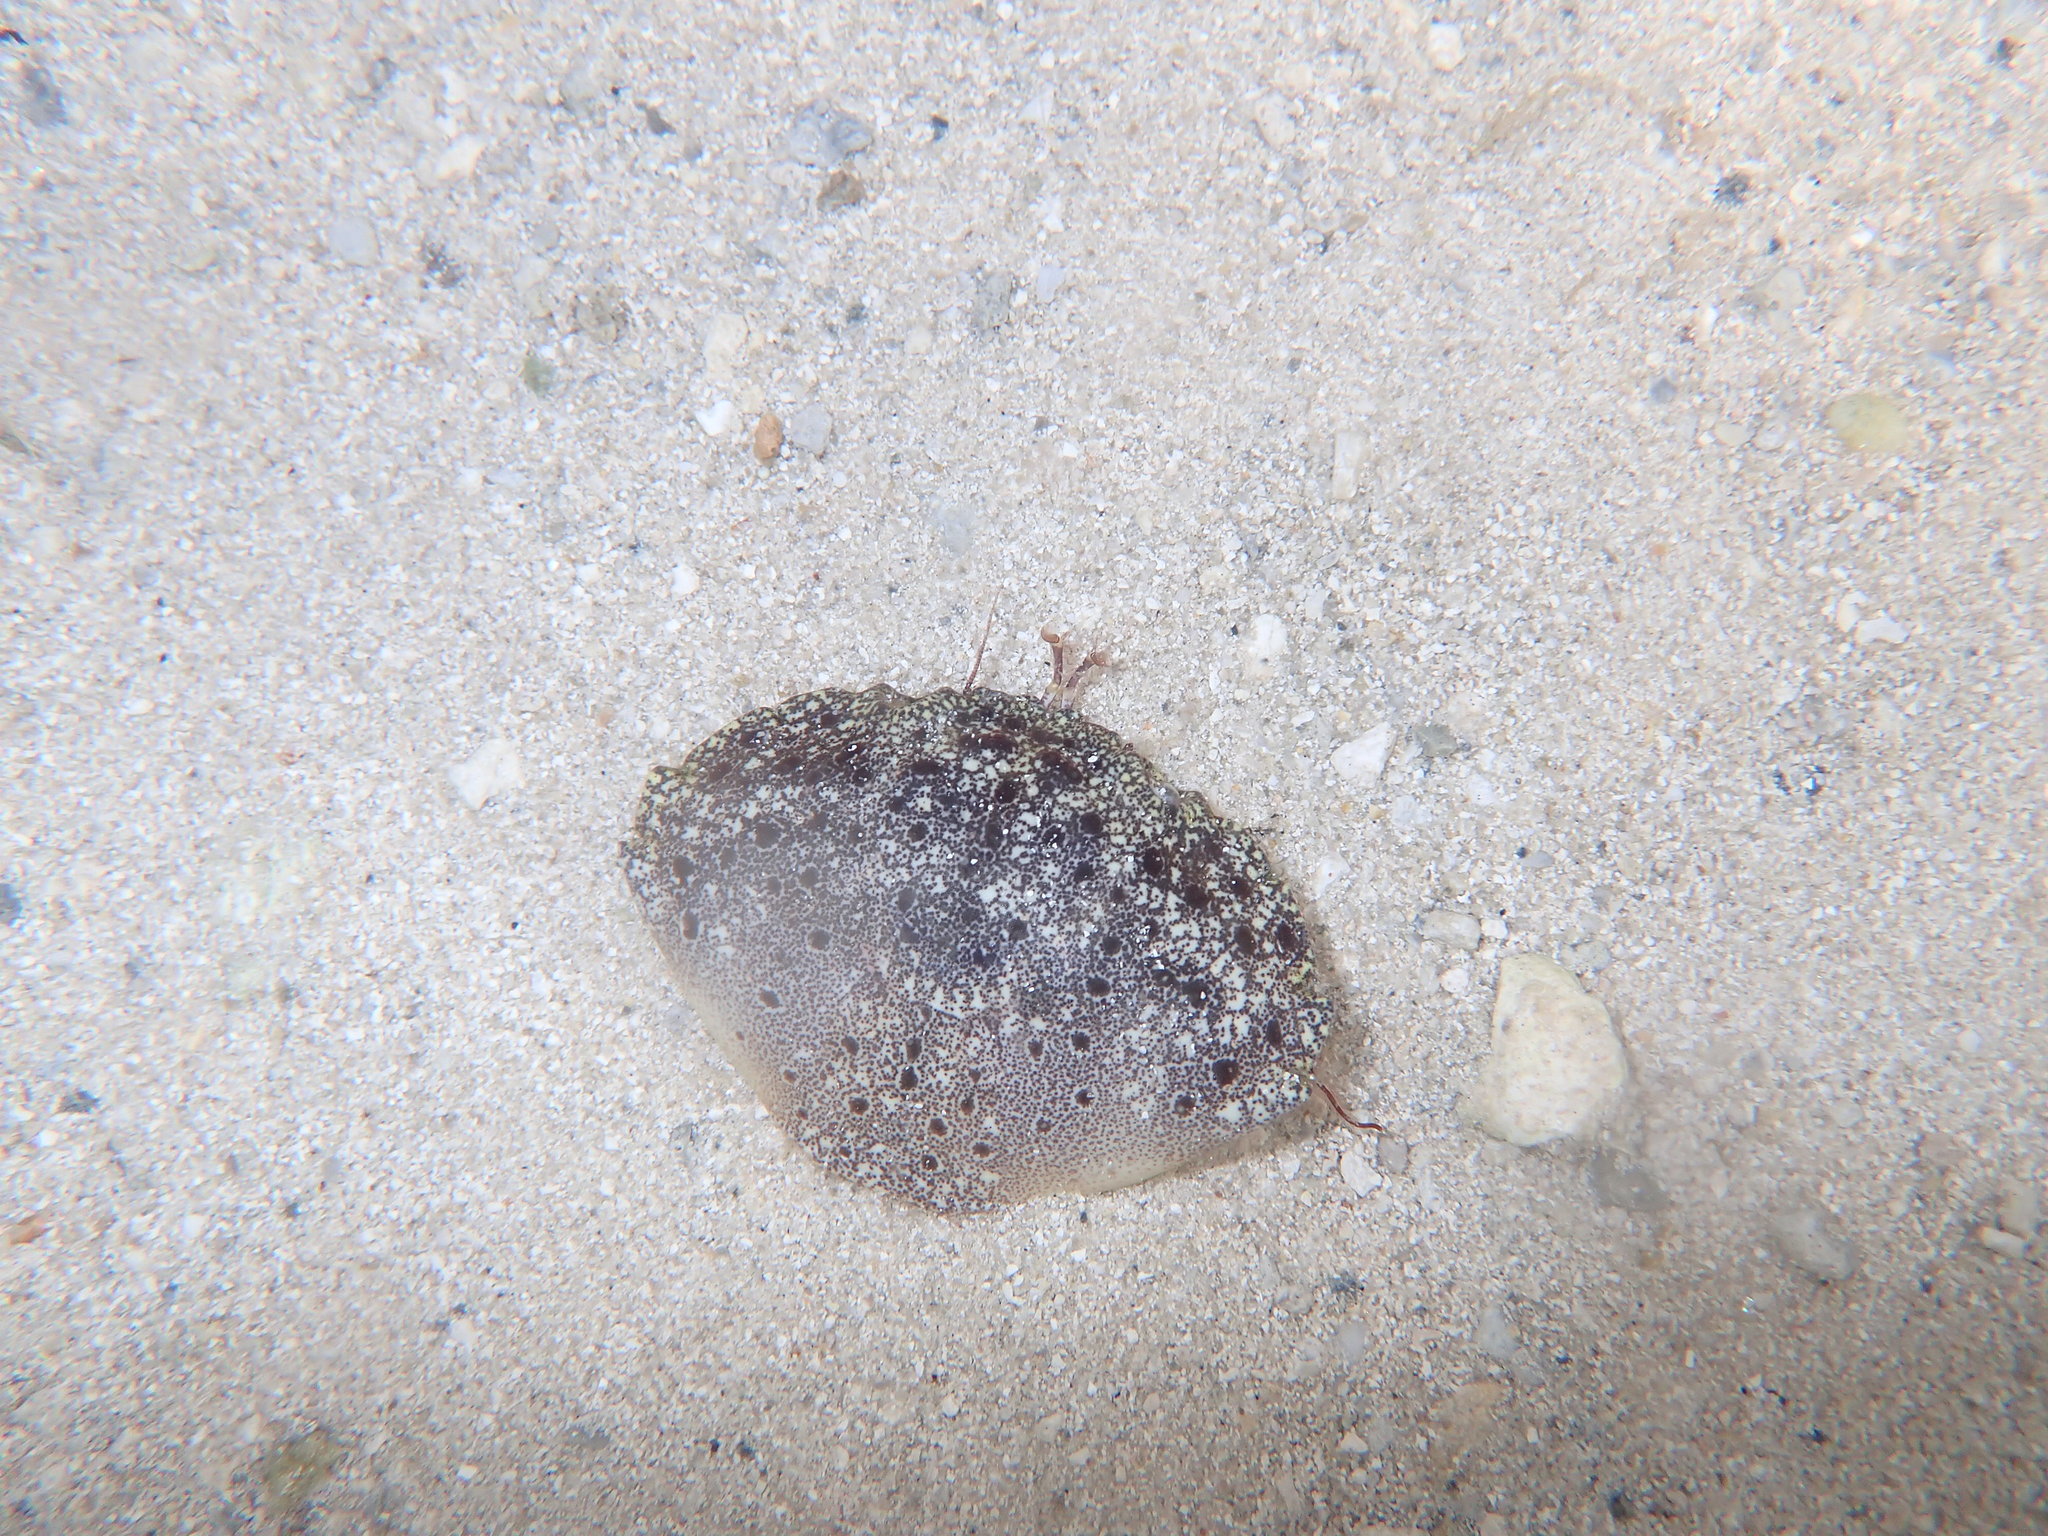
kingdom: Animalia
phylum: Arthropoda
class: Malacostraca
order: Decapoda
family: Menippidae
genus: Menippe
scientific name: Menippe mercenaria
